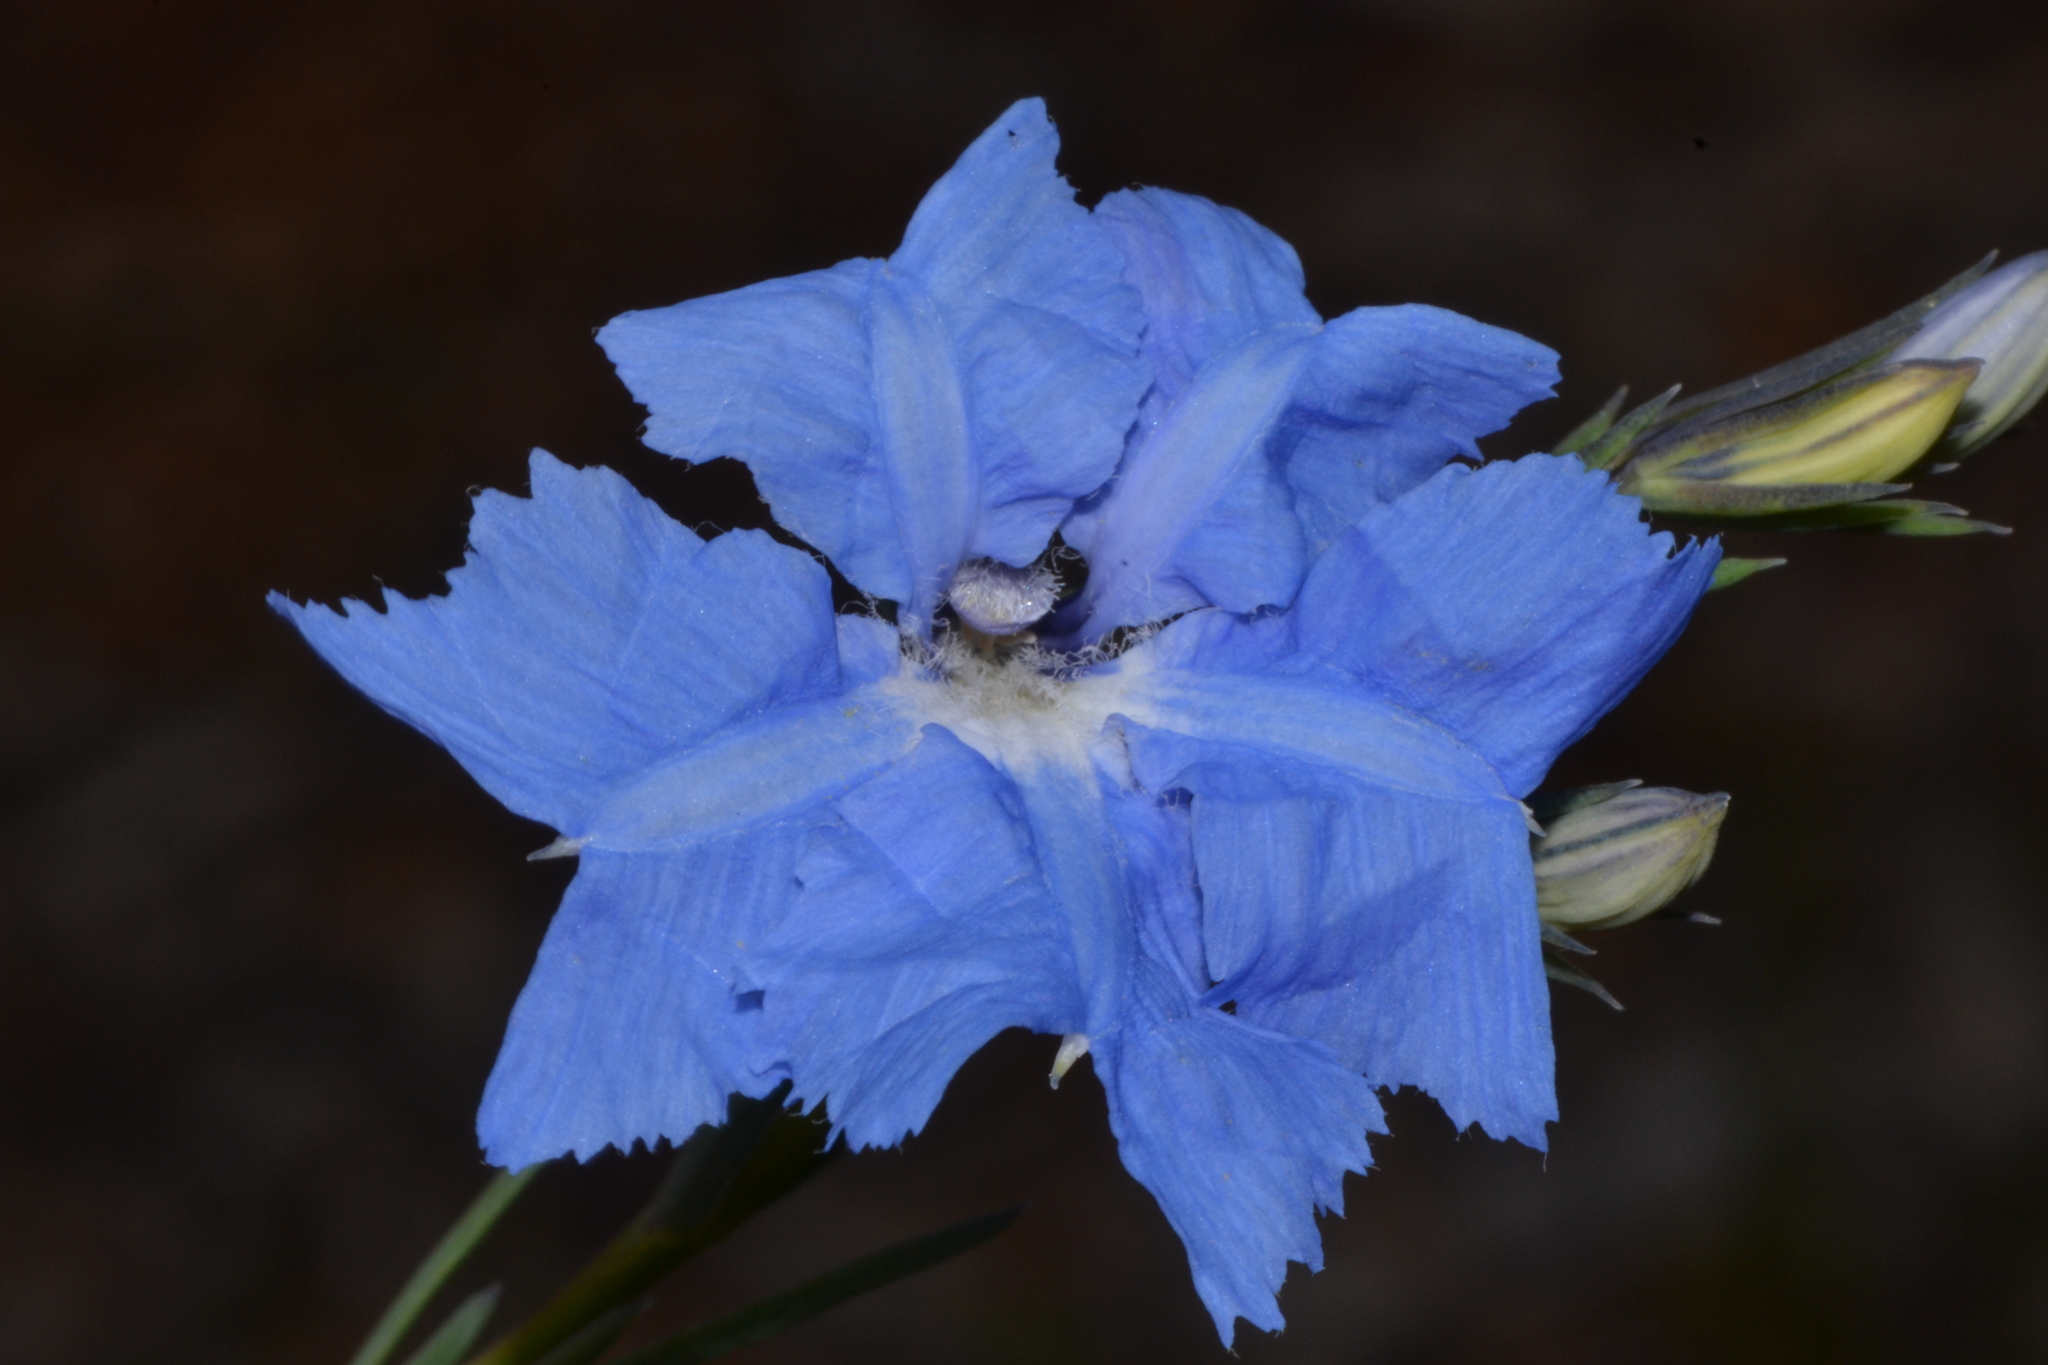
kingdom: Plantae
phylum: Tracheophyta
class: Magnoliopsida
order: Asterales
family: Goodeniaceae
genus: Lechenaultia
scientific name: Lechenaultia biloba
